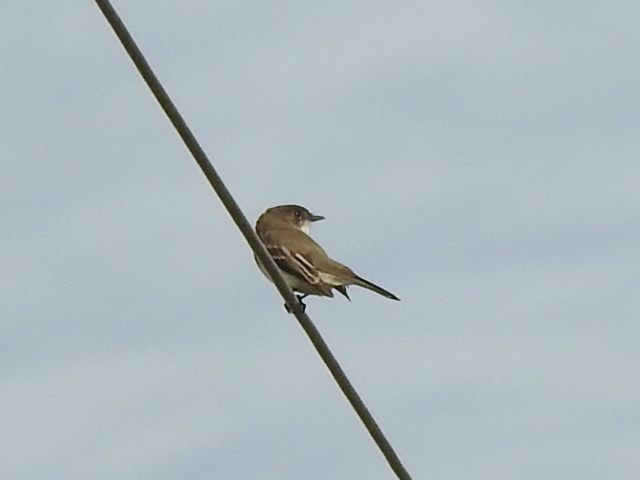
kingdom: Animalia
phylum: Chordata
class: Aves
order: Passeriformes
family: Tyrannidae
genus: Sayornis
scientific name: Sayornis phoebe
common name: Eastern phoebe
